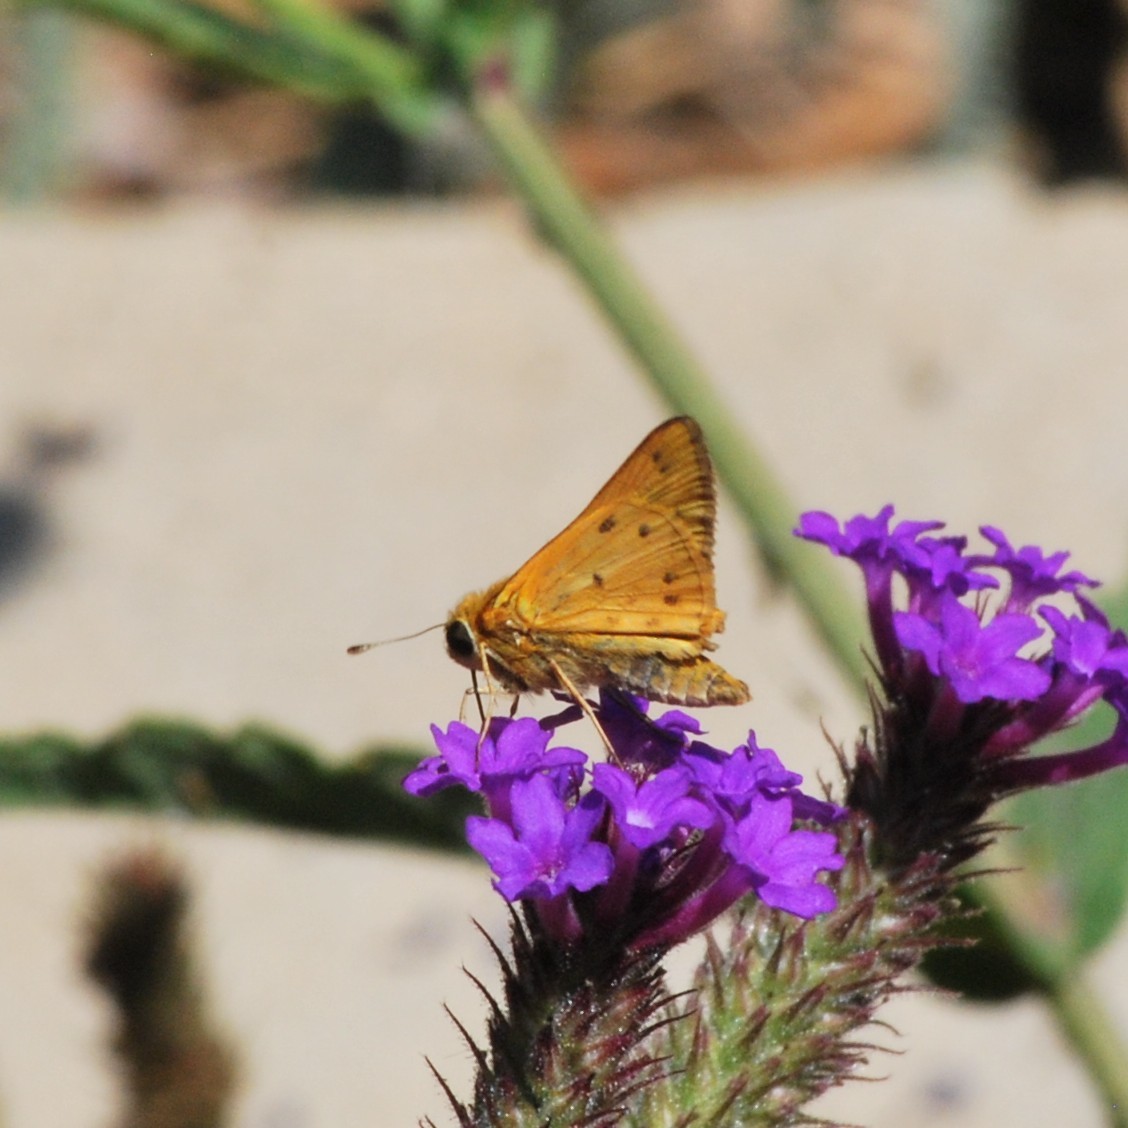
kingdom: Animalia
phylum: Arthropoda
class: Insecta
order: Lepidoptera
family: Hesperiidae
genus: Hylephila
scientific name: Hylephila phyleus
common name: Fiery skipper
